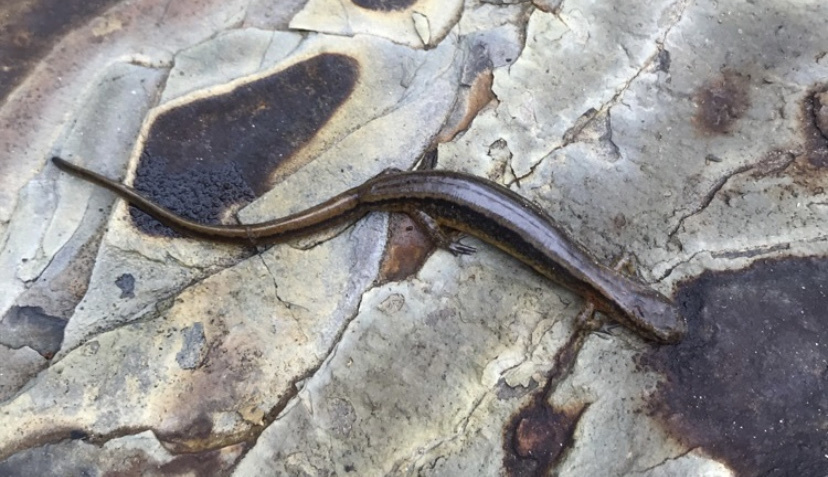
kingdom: Animalia
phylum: Chordata
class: Amphibia
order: Caudata
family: Plethodontidae
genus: Eurycea
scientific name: Eurycea cirrigera
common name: Southern two-lined salamander
